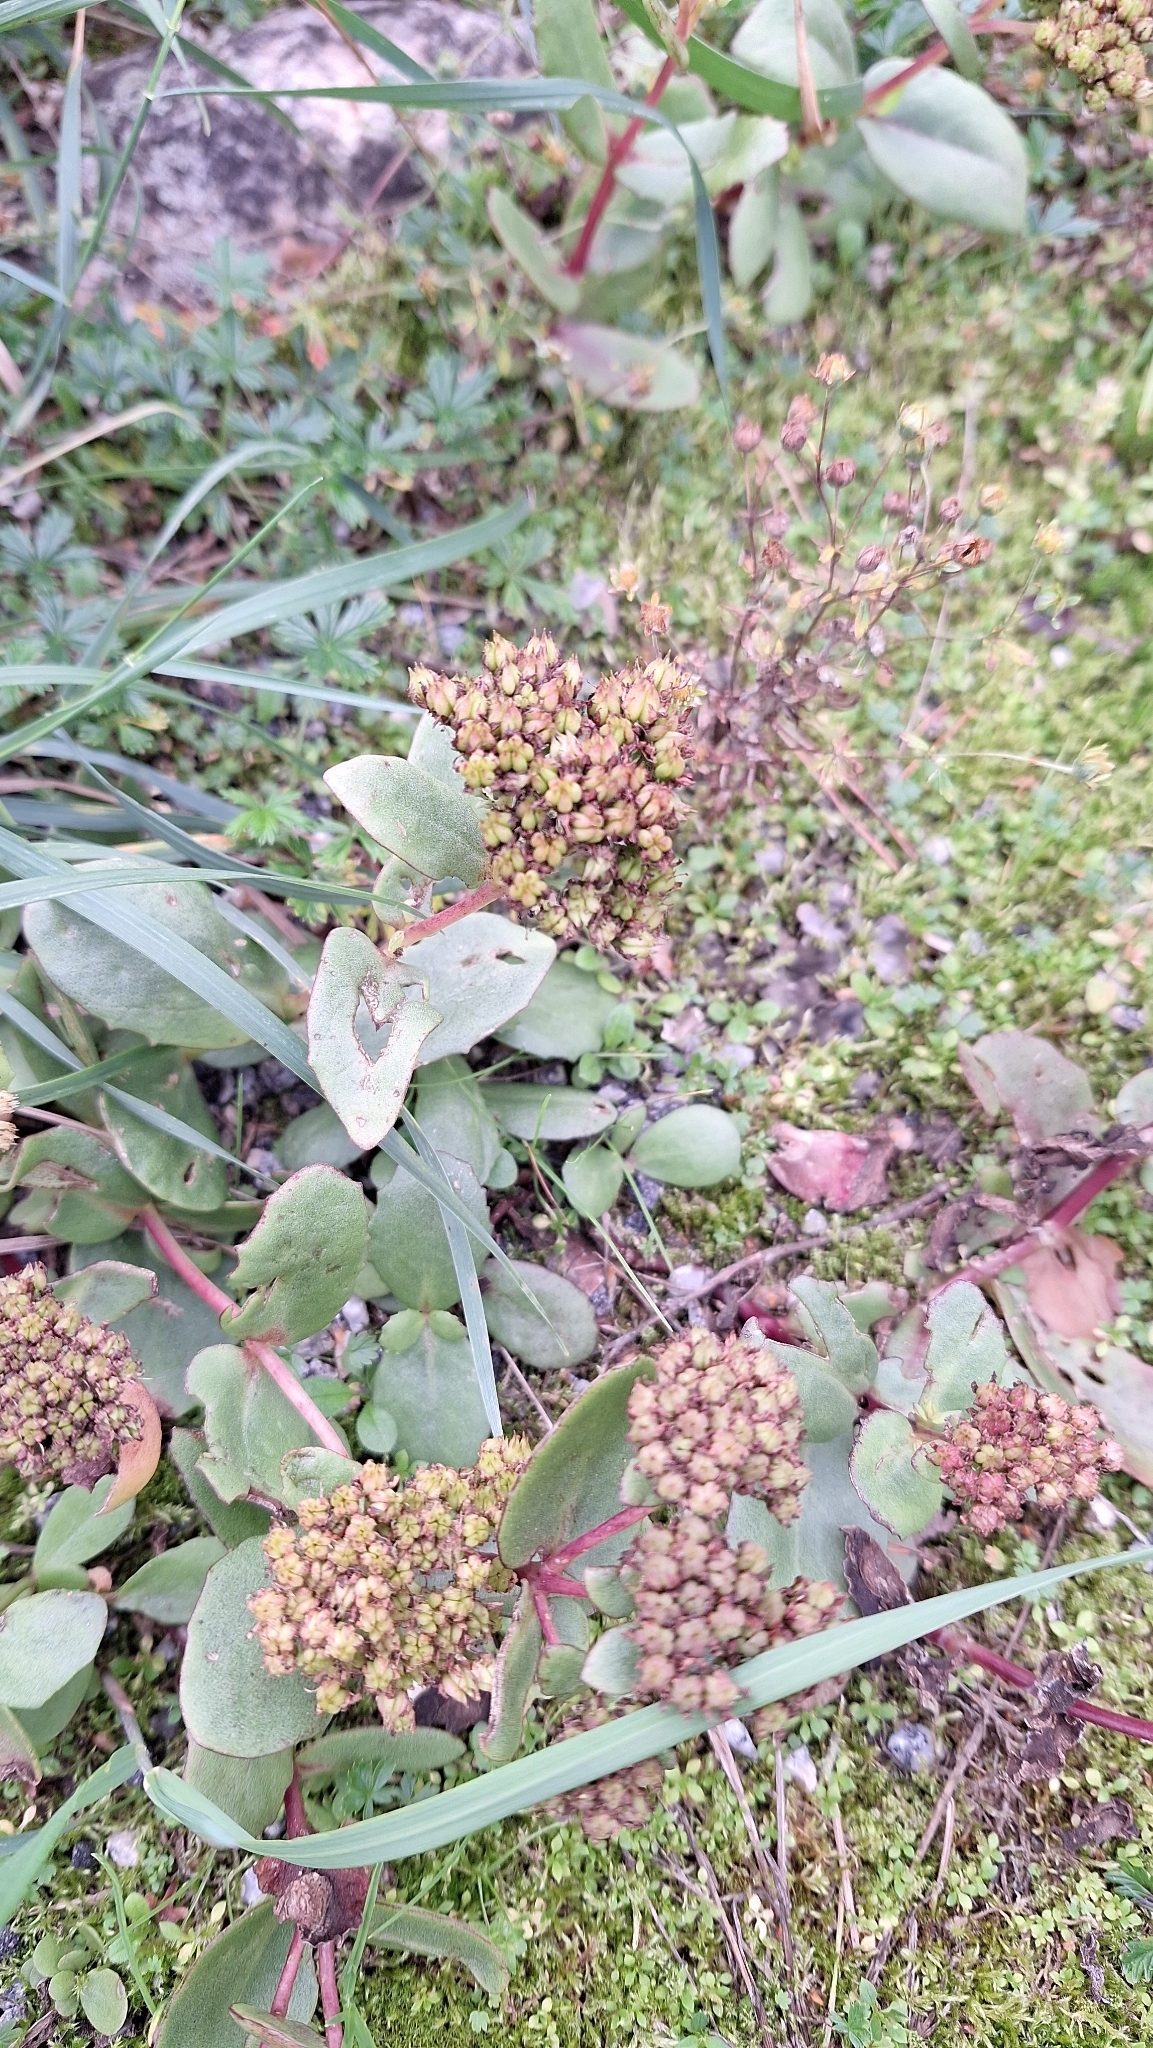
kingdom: Plantae
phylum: Tracheophyta
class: Magnoliopsida
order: Saxifragales
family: Crassulaceae
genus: Hylotelephium
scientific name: Hylotelephium maximum
